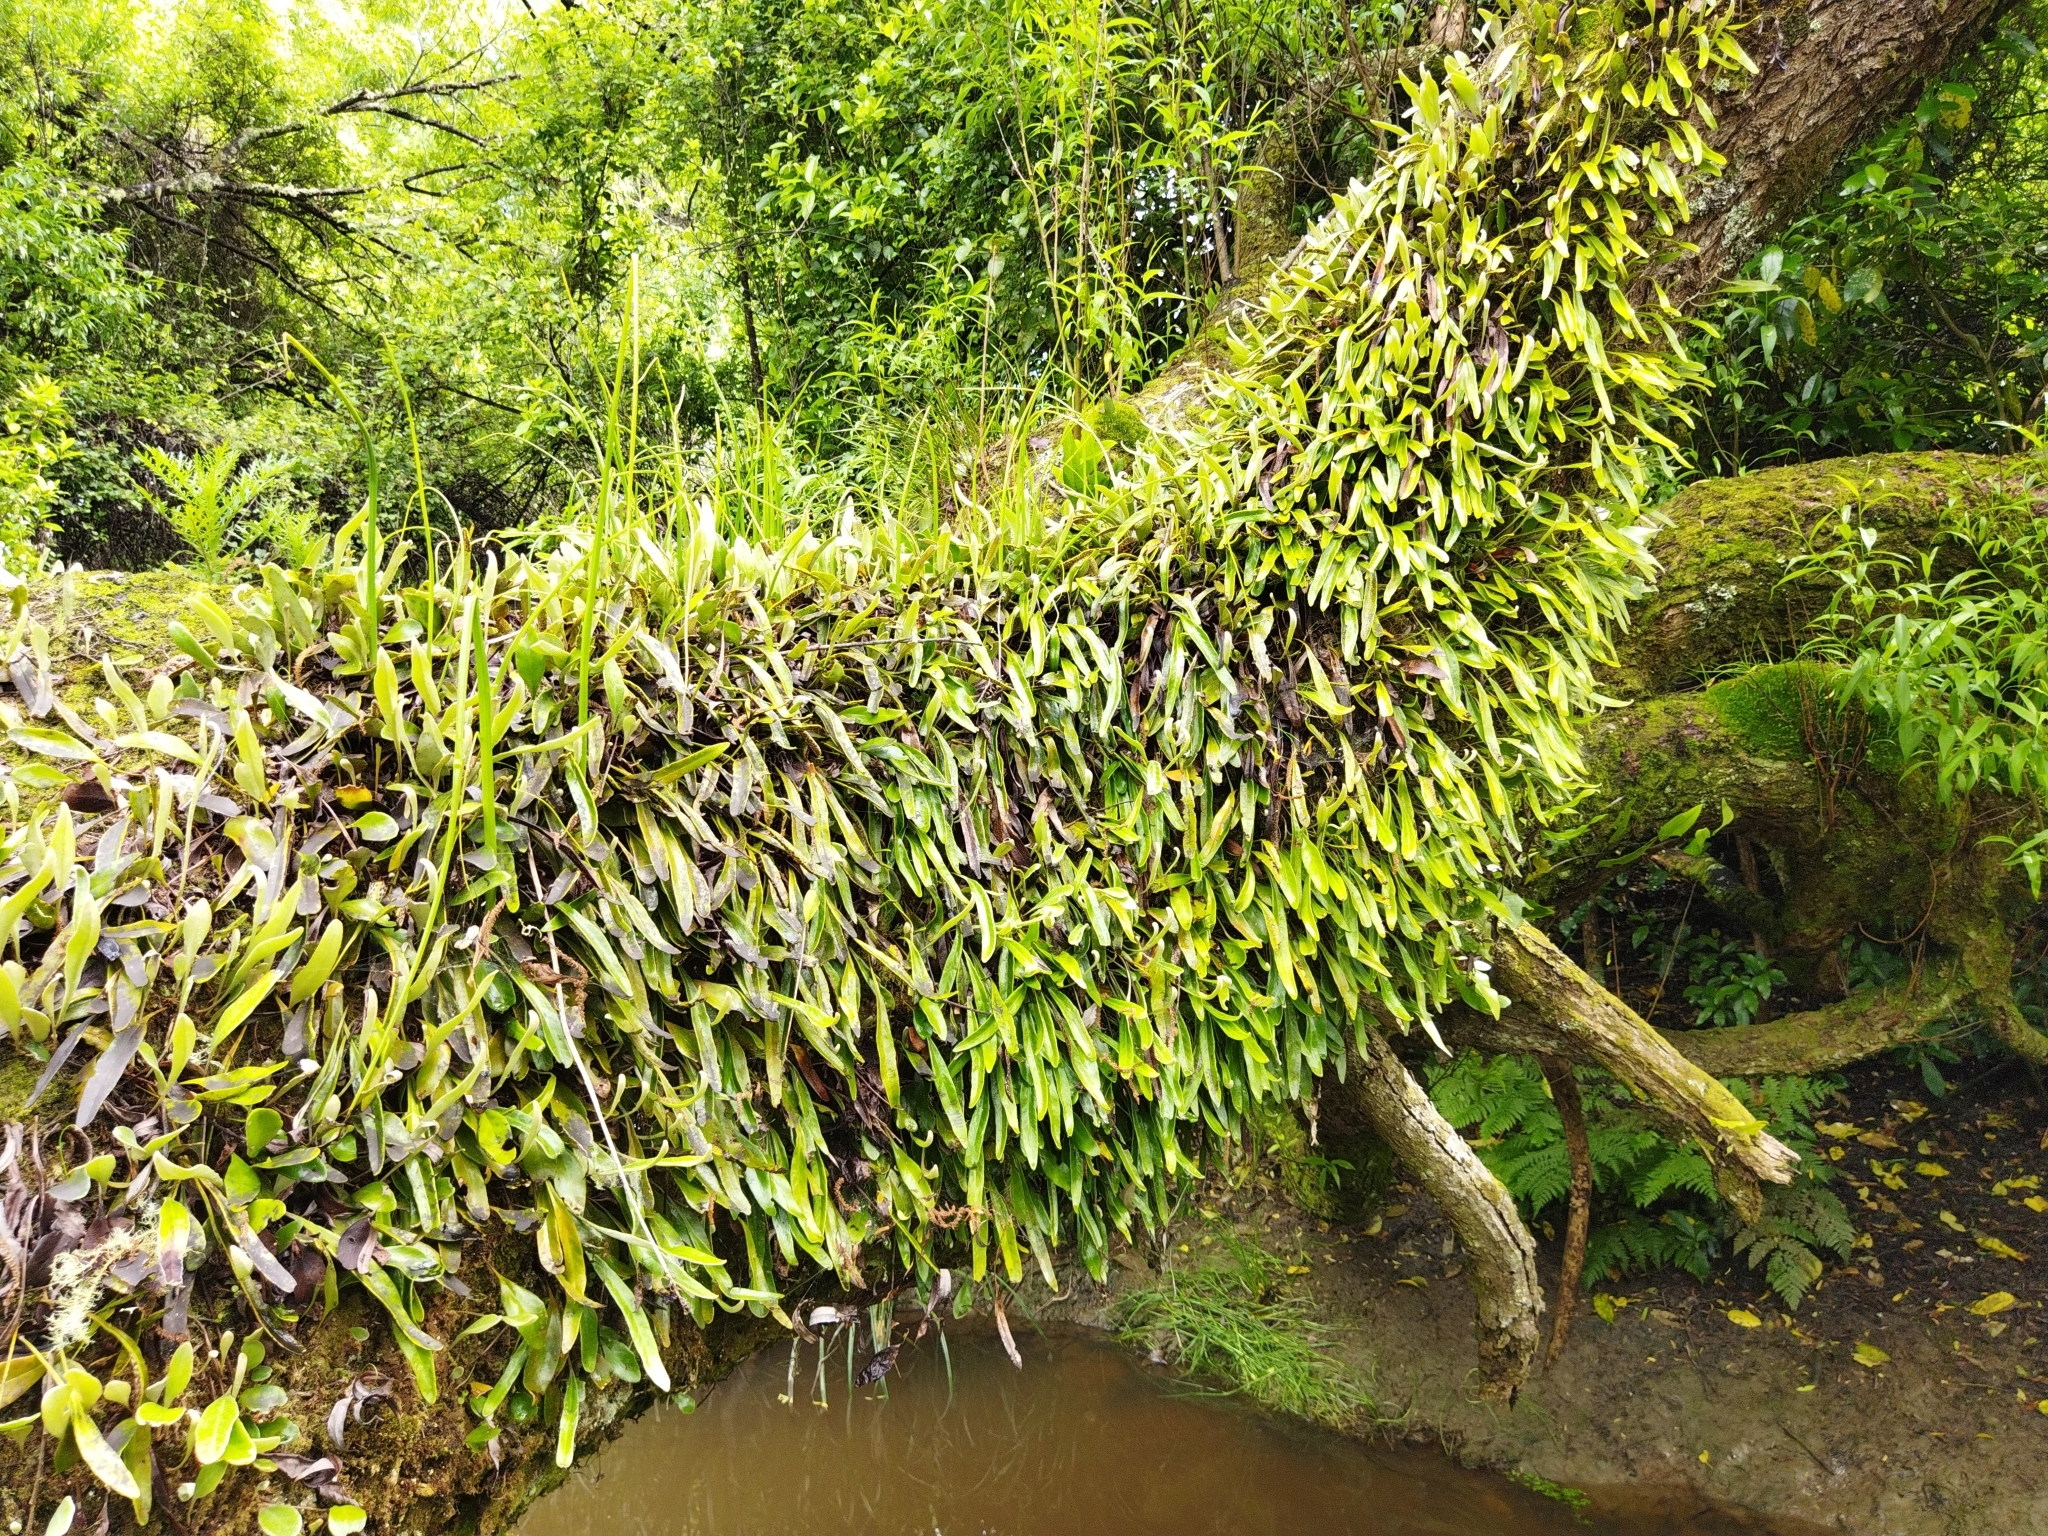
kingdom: Plantae
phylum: Tracheophyta
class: Polypodiopsida
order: Polypodiales
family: Polypodiaceae
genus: Pyrrosia
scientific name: Pyrrosia eleagnifolia
